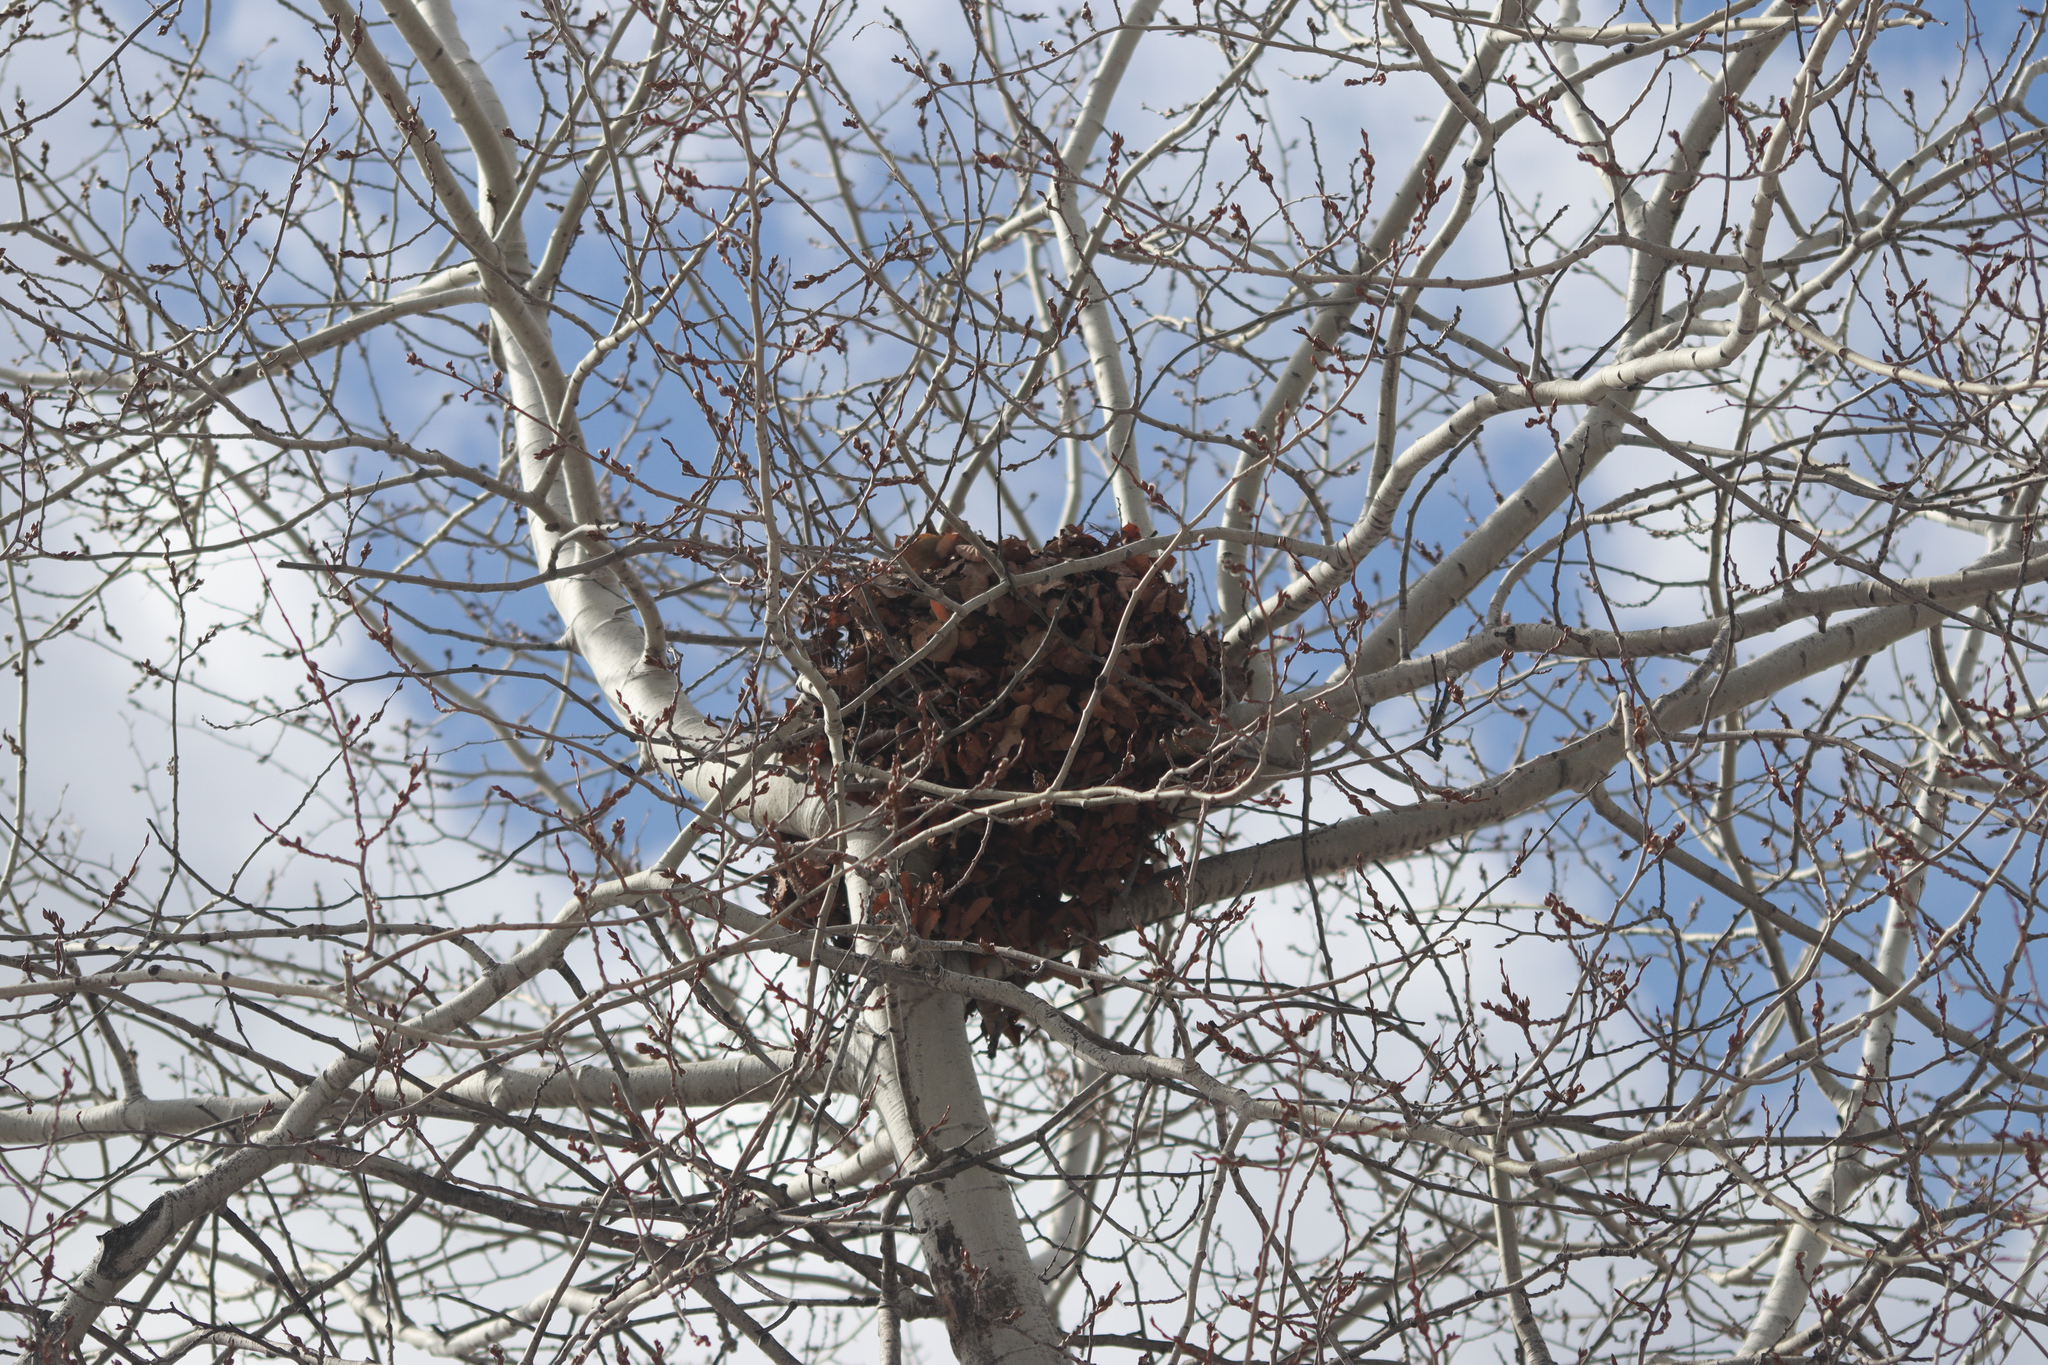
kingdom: Animalia
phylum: Chordata
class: Mammalia
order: Rodentia
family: Sciuridae
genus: Sciurus
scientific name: Sciurus carolinensis
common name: Eastern gray squirrel
